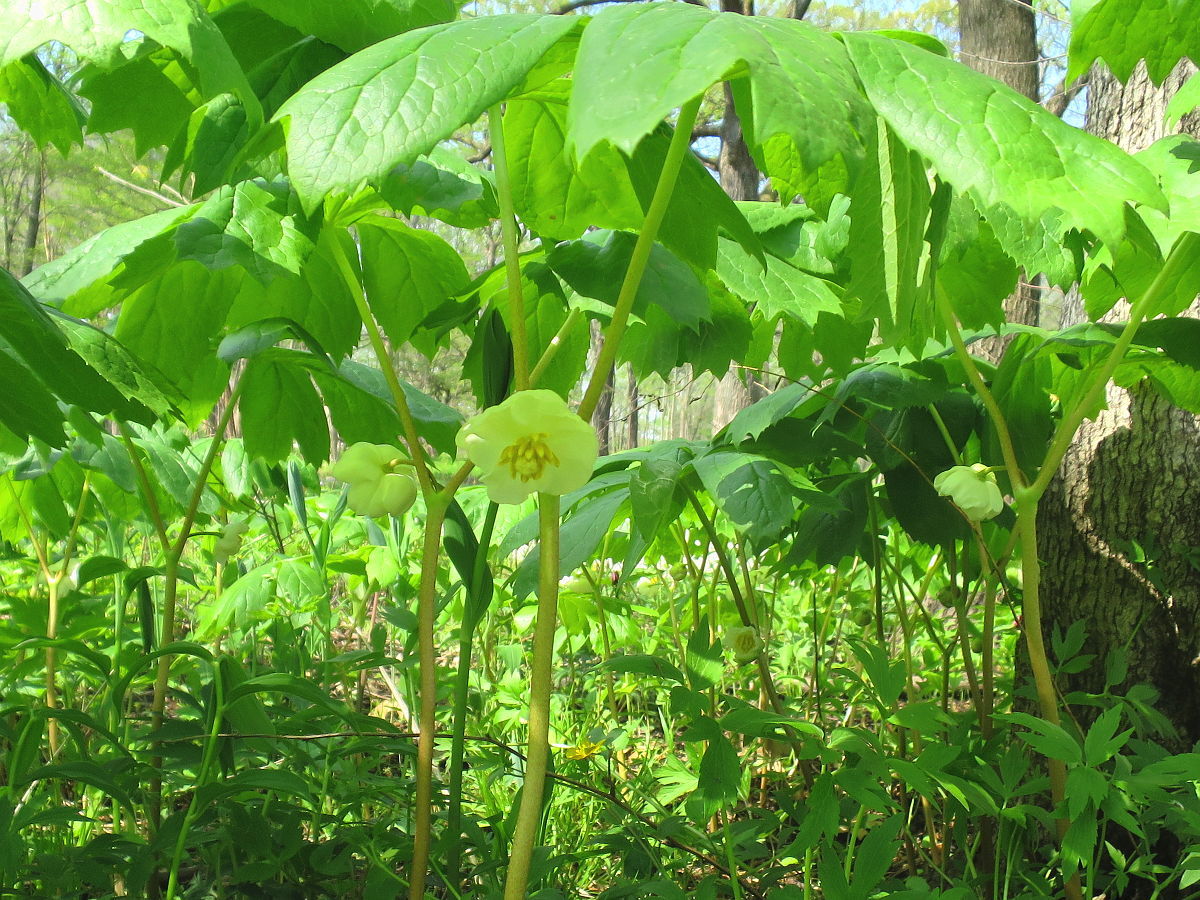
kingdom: Plantae
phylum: Tracheophyta
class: Magnoliopsida
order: Ranunculales
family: Berberidaceae
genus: Podophyllum
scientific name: Podophyllum peltatum
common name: Wild mandrake
